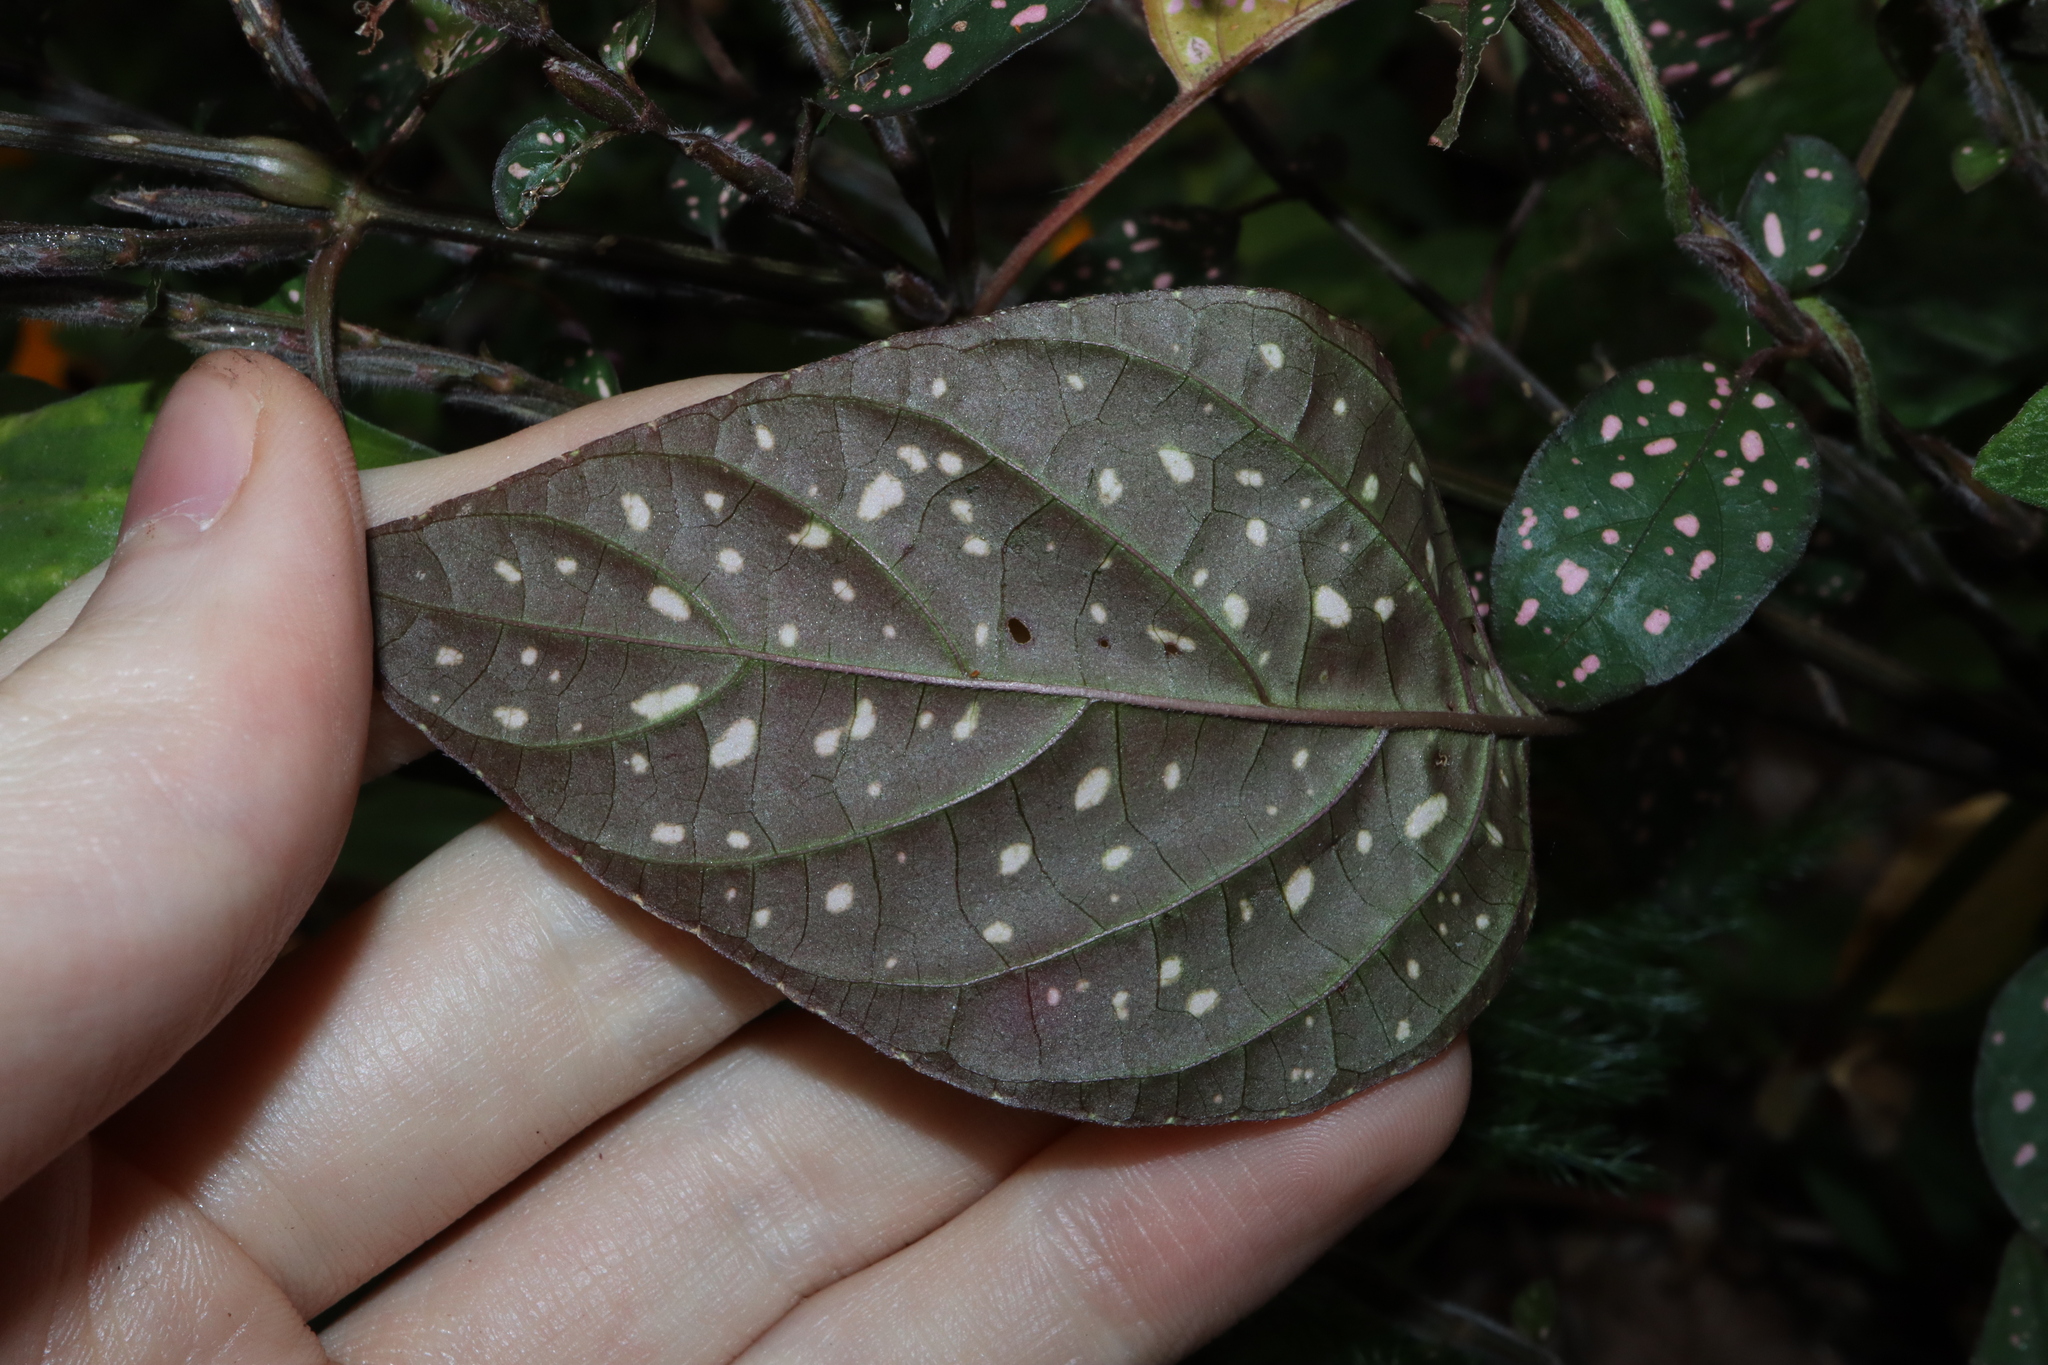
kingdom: Plantae
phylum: Tracheophyta
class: Magnoliopsida
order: Lamiales
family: Acanthaceae
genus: Hypoestes
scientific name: Hypoestes phyllostachya
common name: Polkadot-plant
